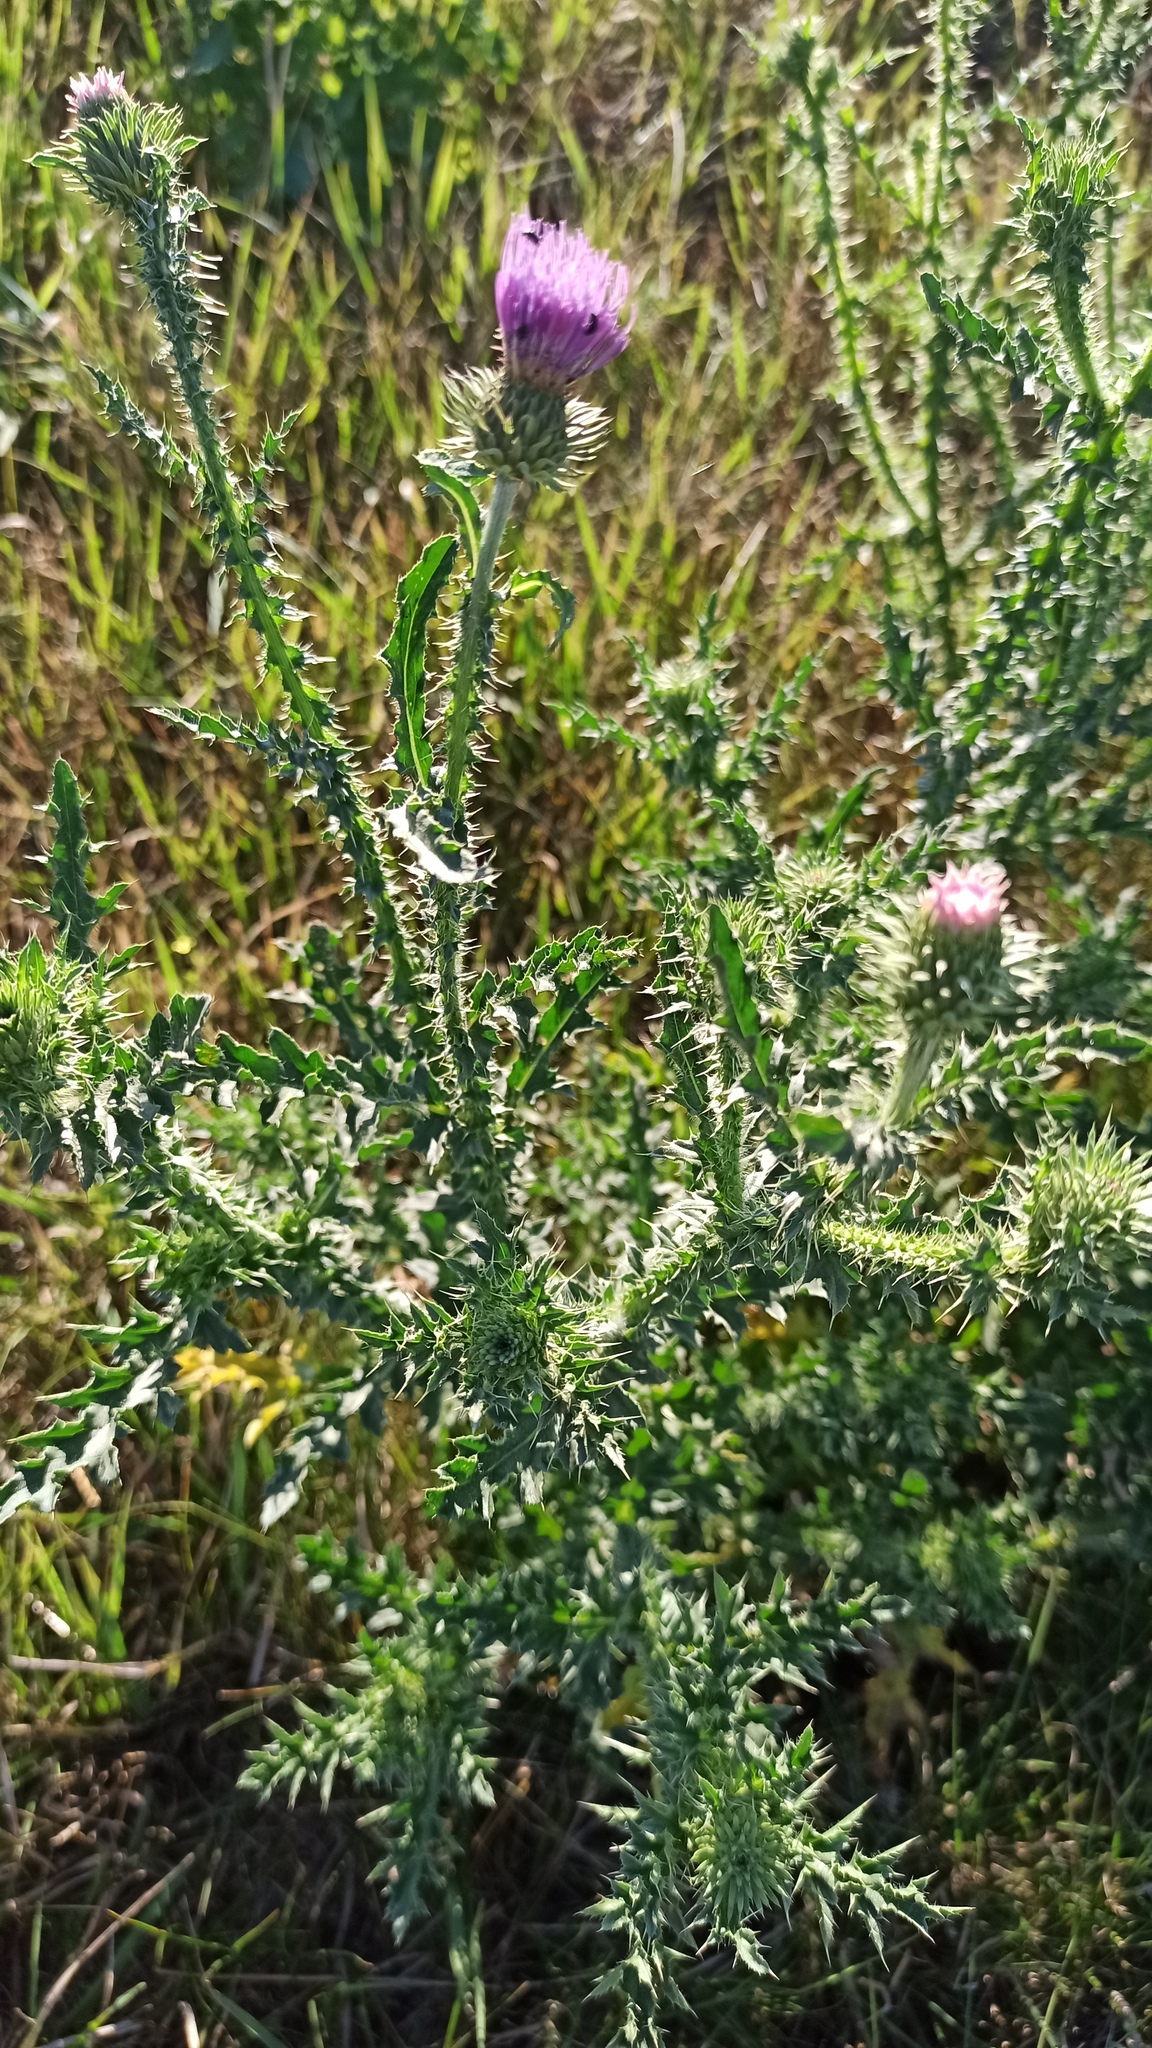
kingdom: Plantae
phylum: Tracheophyta
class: Magnoliopsida
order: Asterales
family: Asteraceae
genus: Carduus
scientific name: Carduus acanthoides
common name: Plumeless thistle
